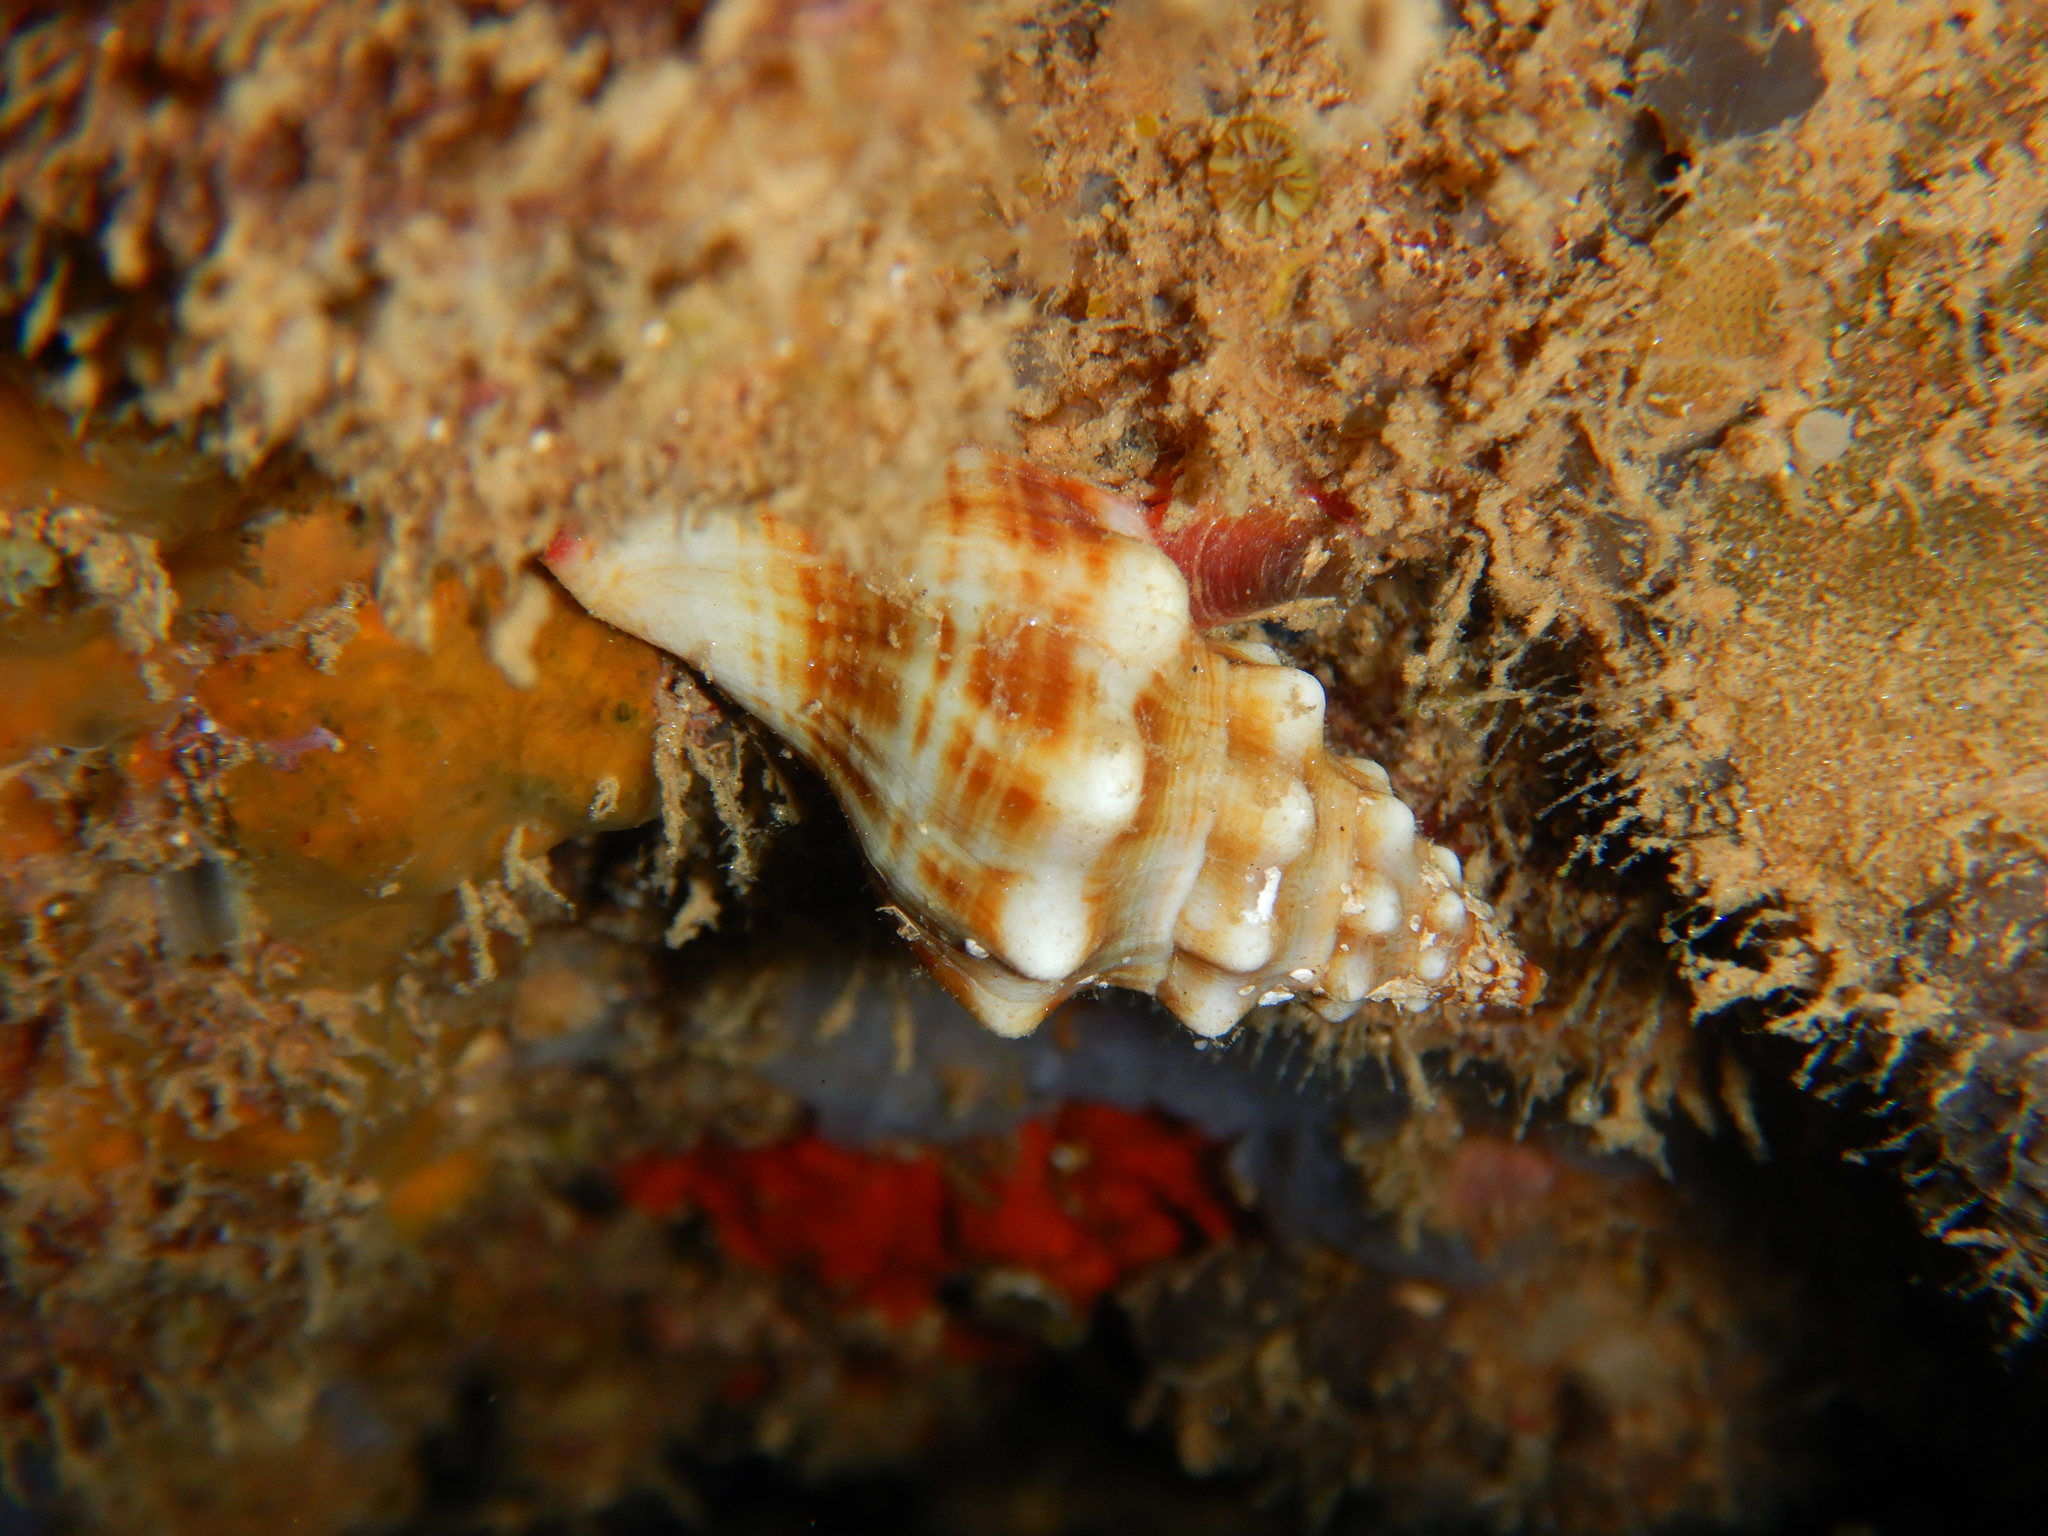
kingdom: Animalia
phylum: Mollusca
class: Gastropoda
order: Neogastropoda
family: Fasciolariidae
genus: Tarantinaea
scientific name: Tarantinaea lignaria
